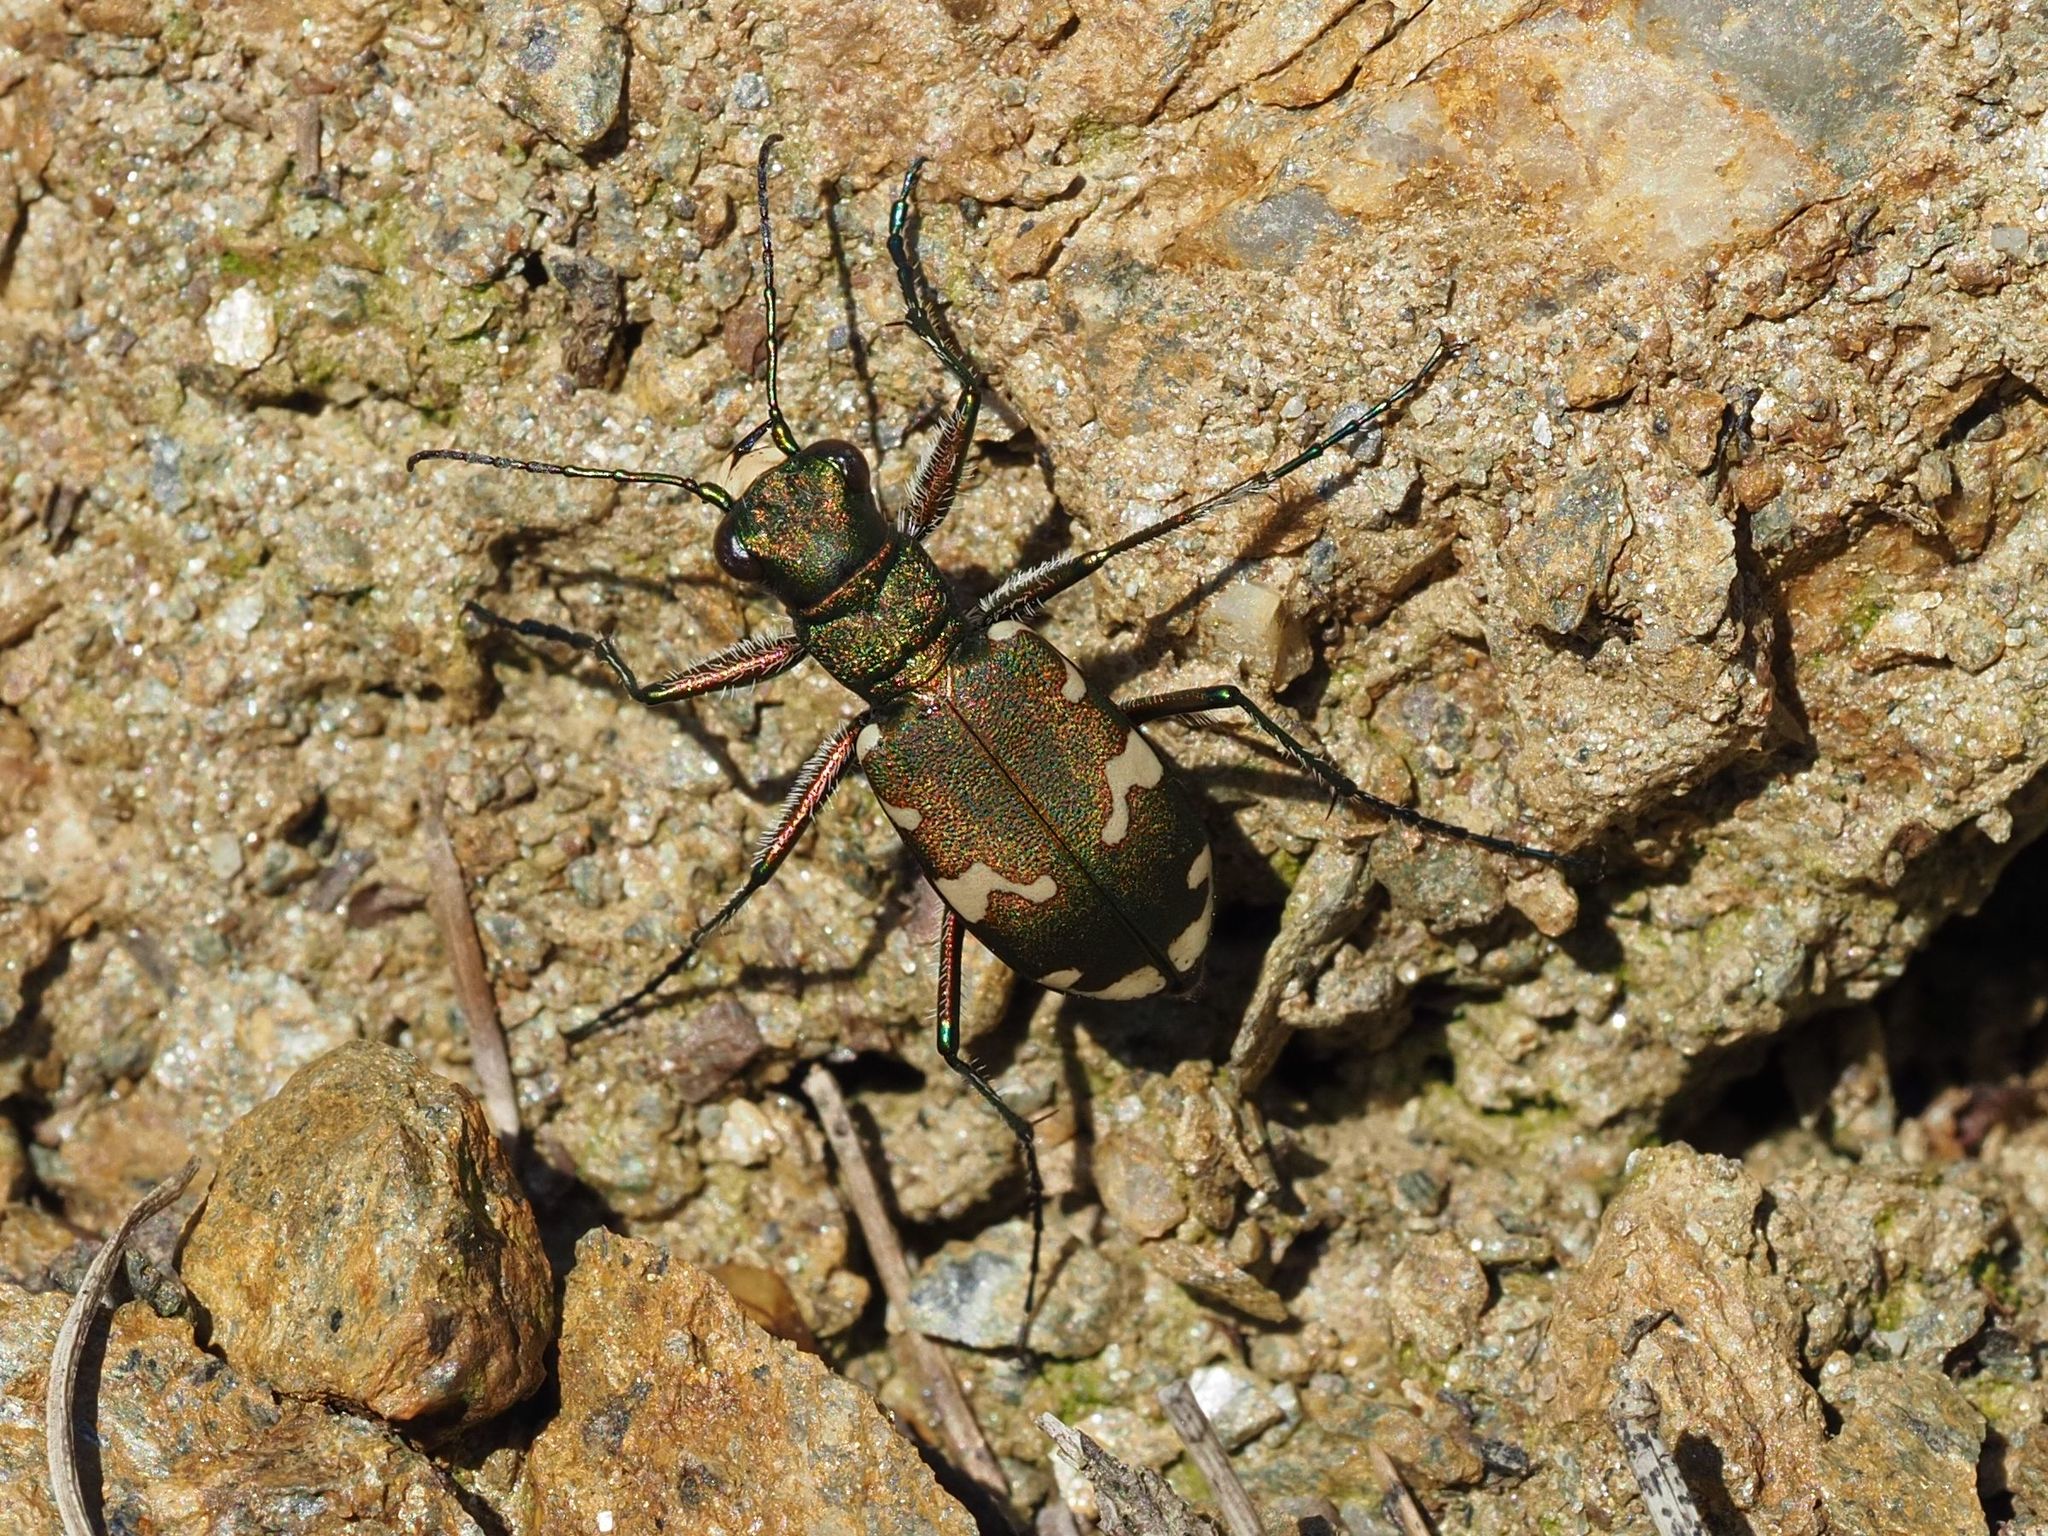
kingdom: Animalia
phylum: Arthropoda
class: Insecta
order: Coleoptera
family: Carabidae
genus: Cicindela
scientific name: Cicindela sylvicola
